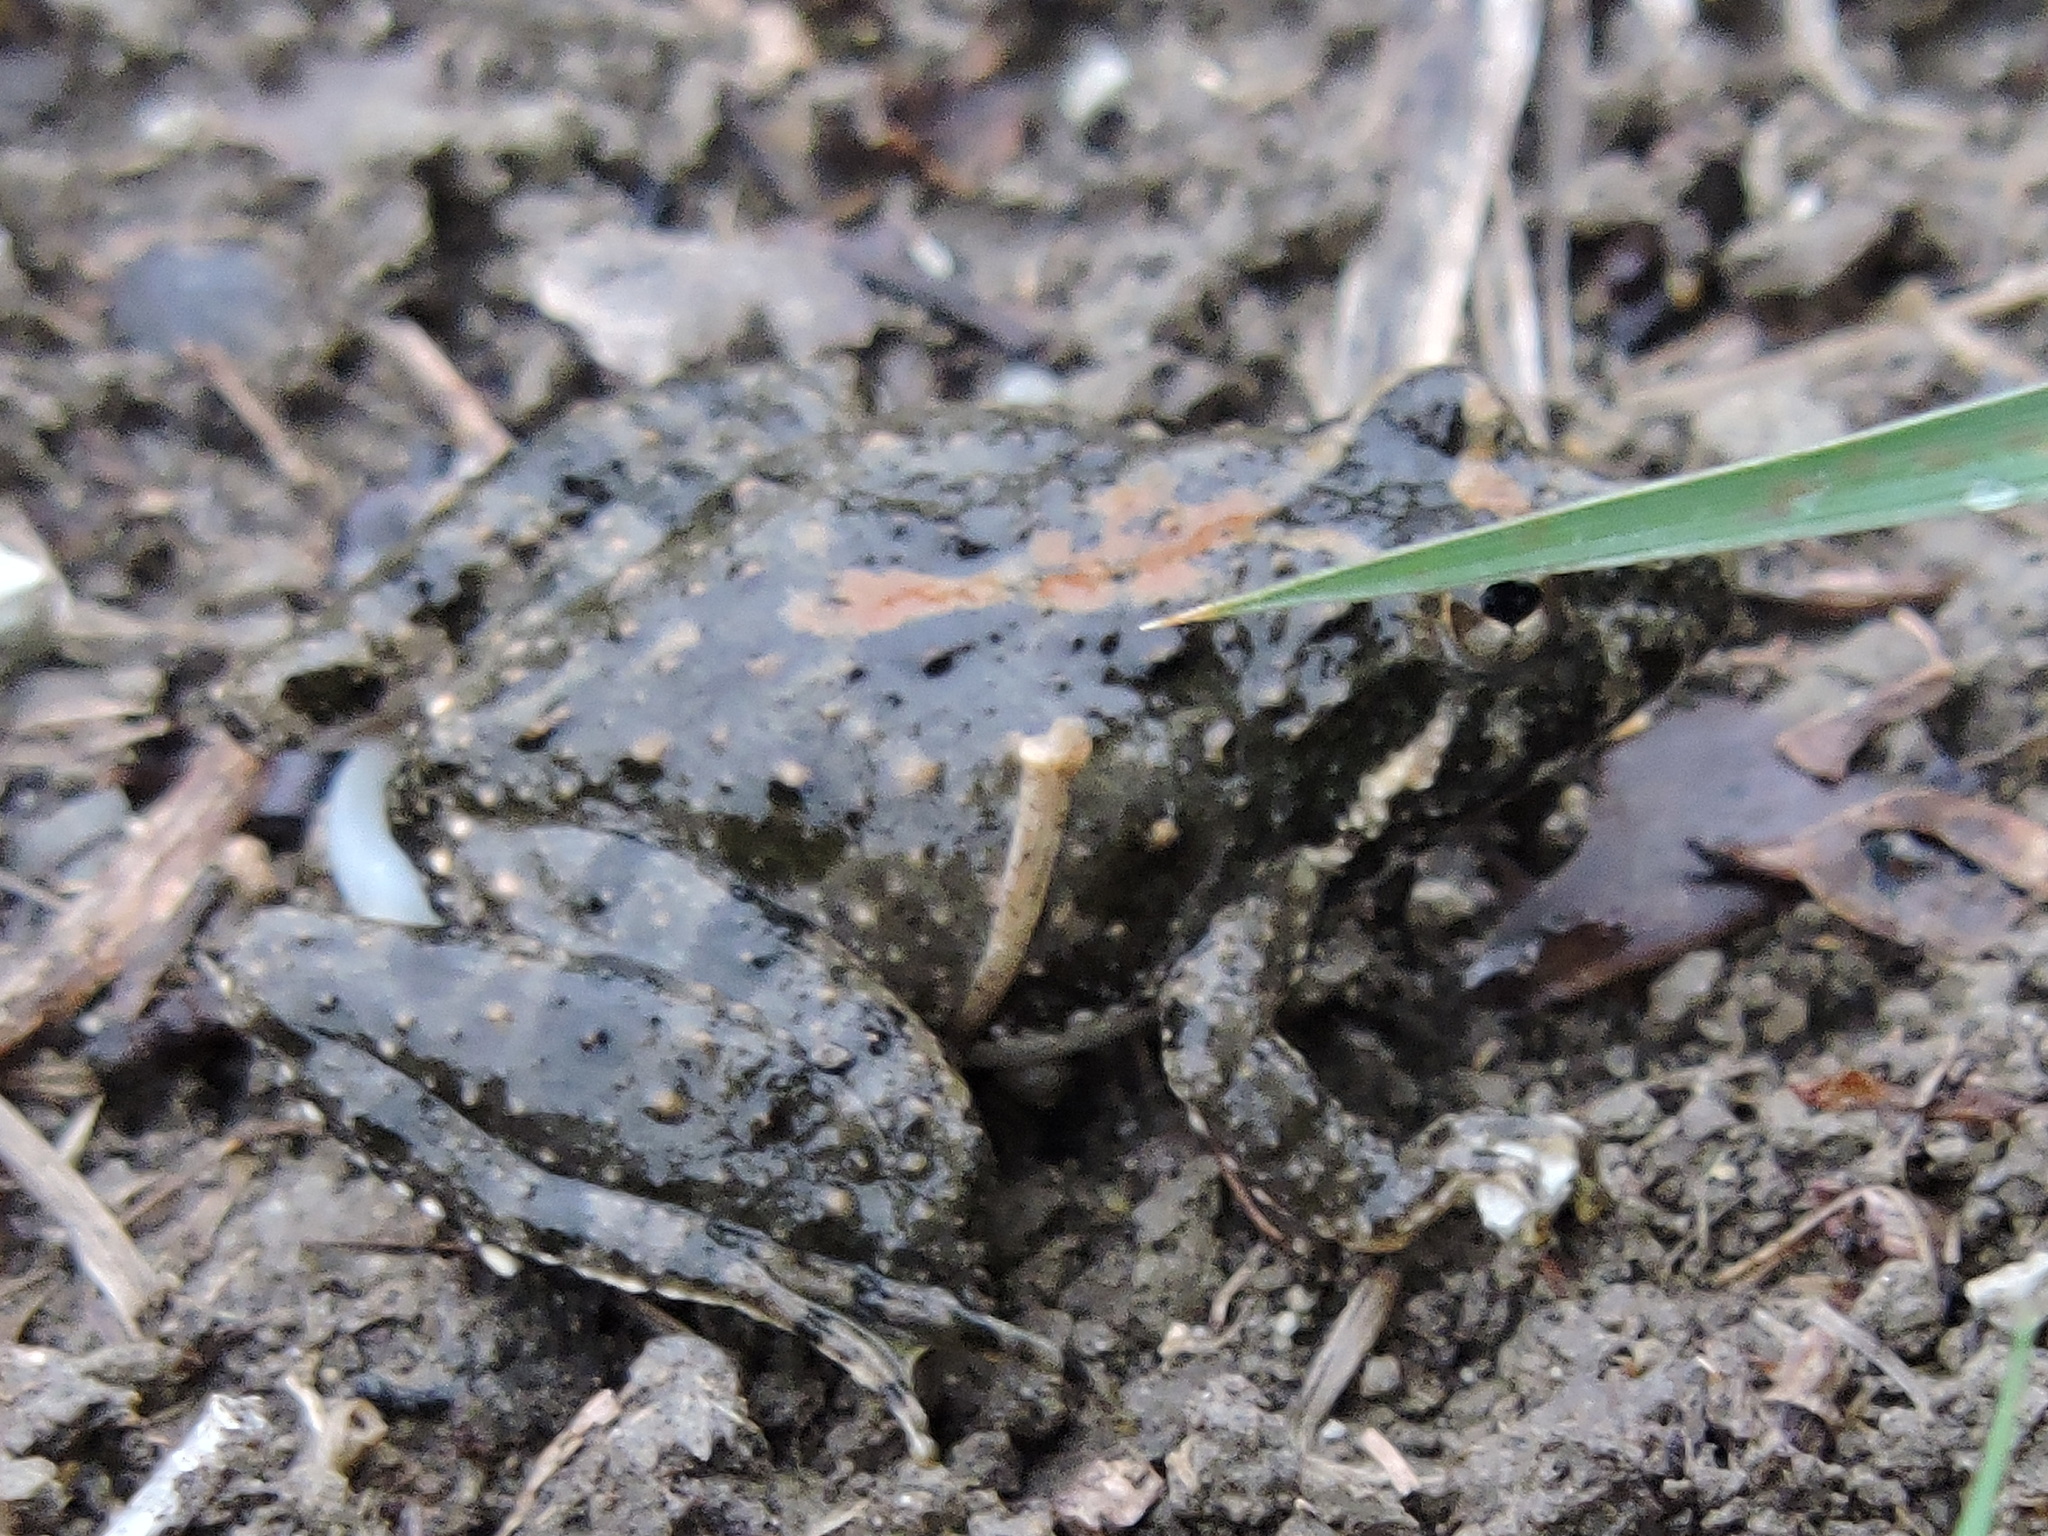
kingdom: Animalia
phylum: Chordata
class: Amphibia
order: Anura
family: Hylidae
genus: Acris
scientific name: Acris blanchardi
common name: Blanchard's cricket frog
